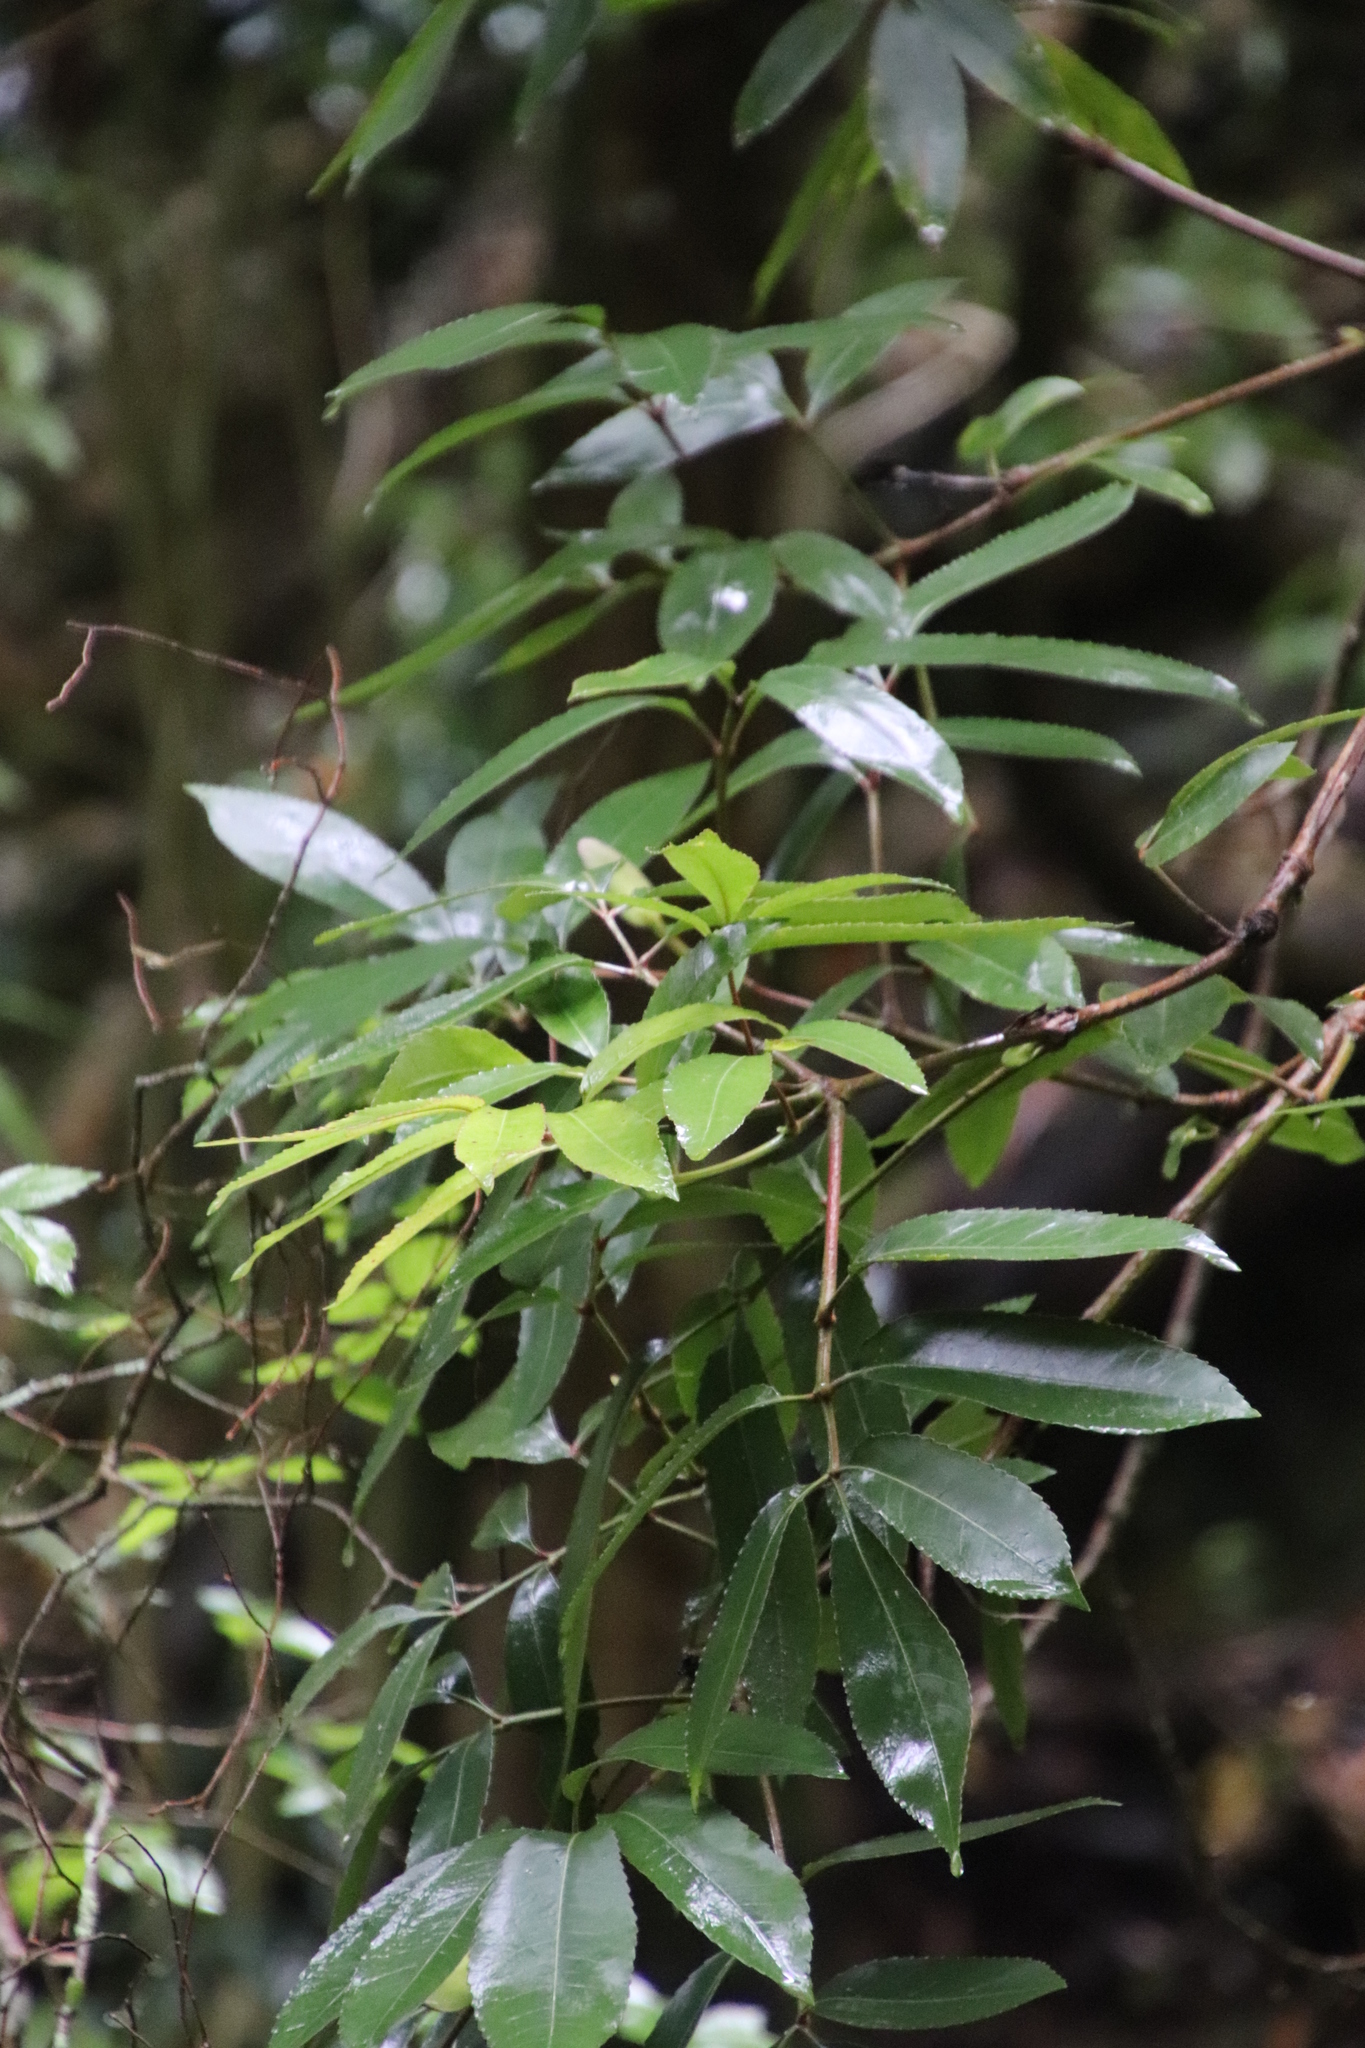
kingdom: Plantae
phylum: Tracheophyta
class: Magnoliopsida
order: Oxalidales
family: Cunoniaceae
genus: Cunonia
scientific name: Cunonia capensis
